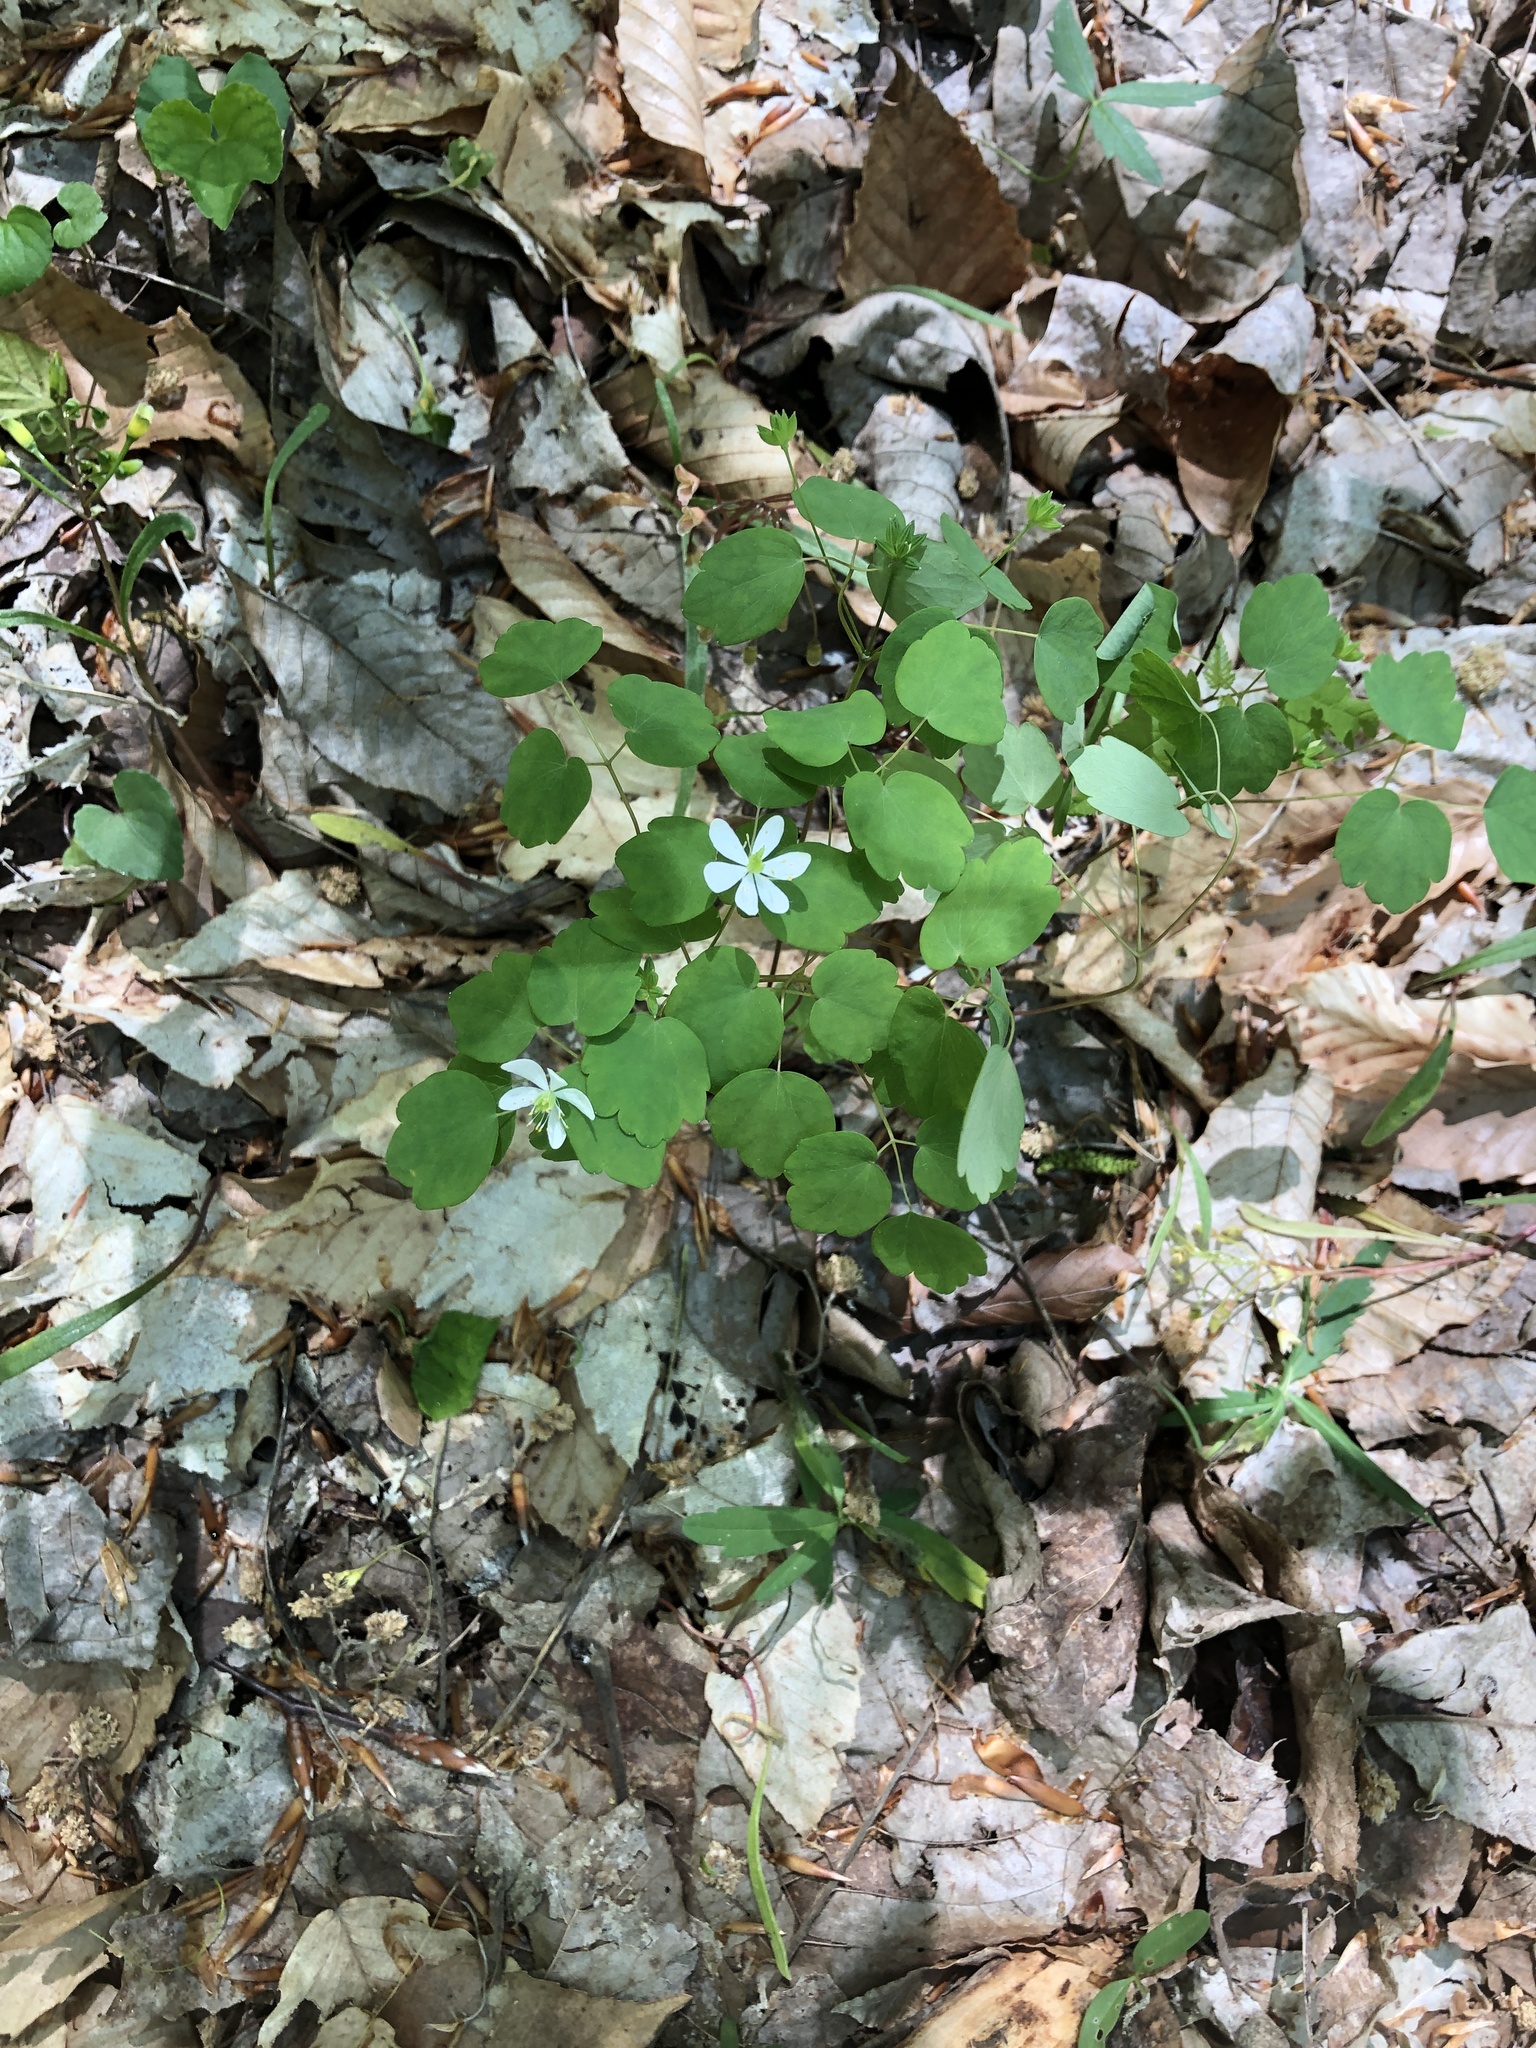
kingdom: Plantae
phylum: Tracheophyta
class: Magnoliopsida
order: Ranunculales
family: Ranunculaceae
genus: Thalictrum
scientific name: Thalictrum thalictroides
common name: Rue-anemone
